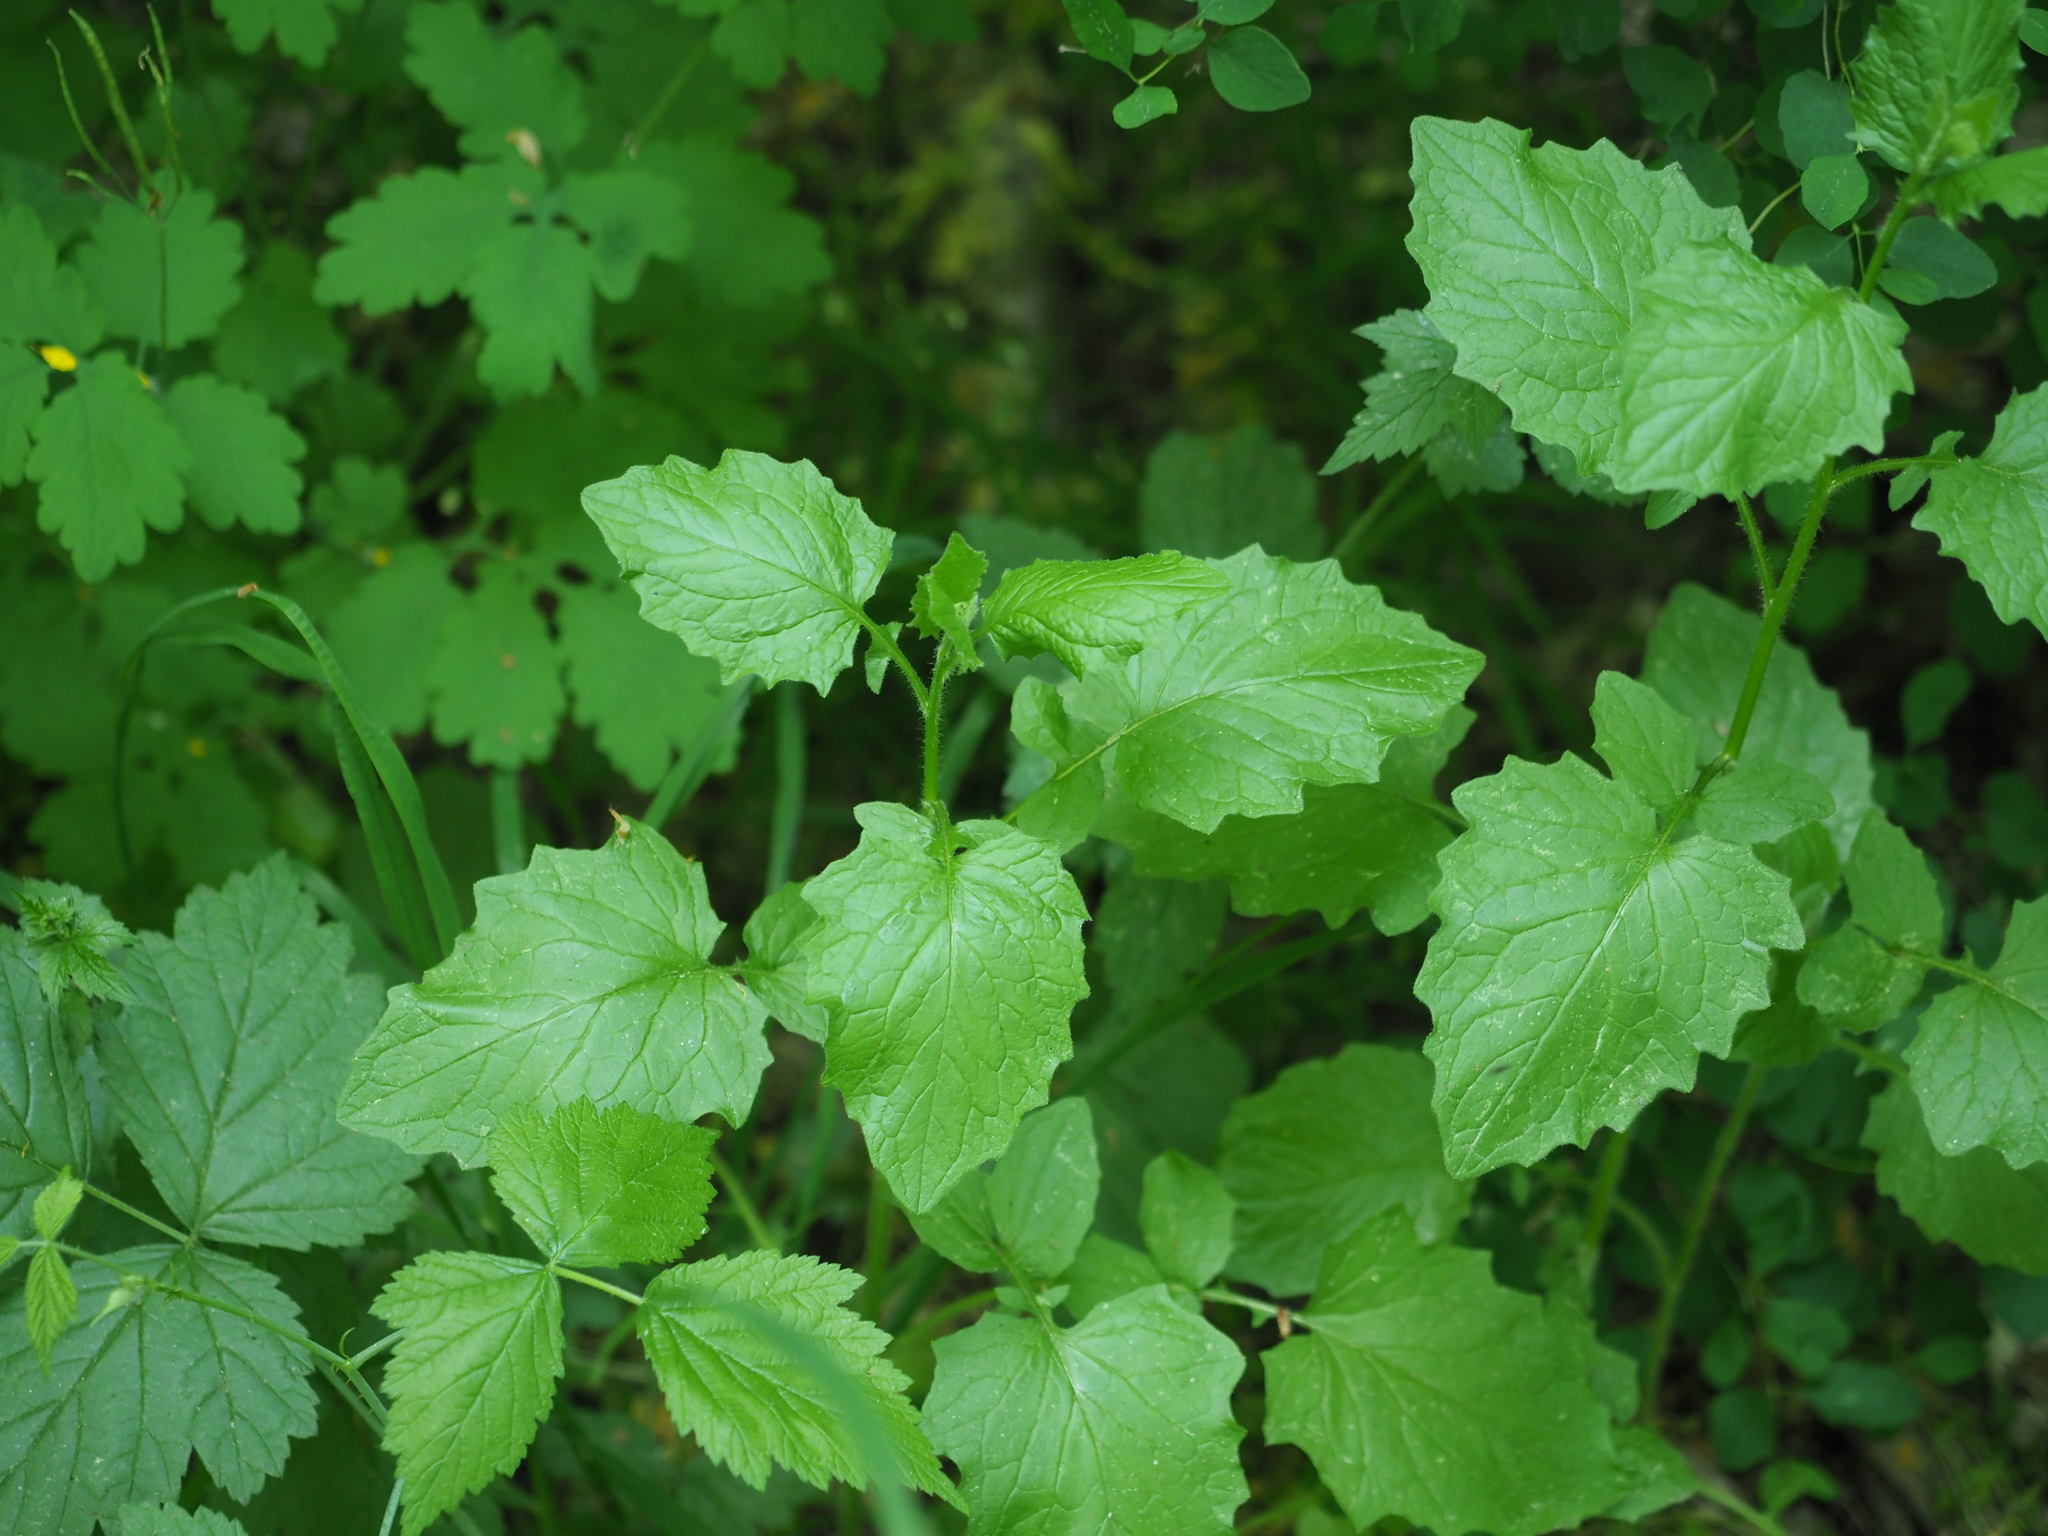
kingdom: Plantae
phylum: Tracheophyta
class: Magnoliopsida
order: Asterales
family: Asteraceae
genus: Lapsana
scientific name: Lapsana communis
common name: Nipplewort
